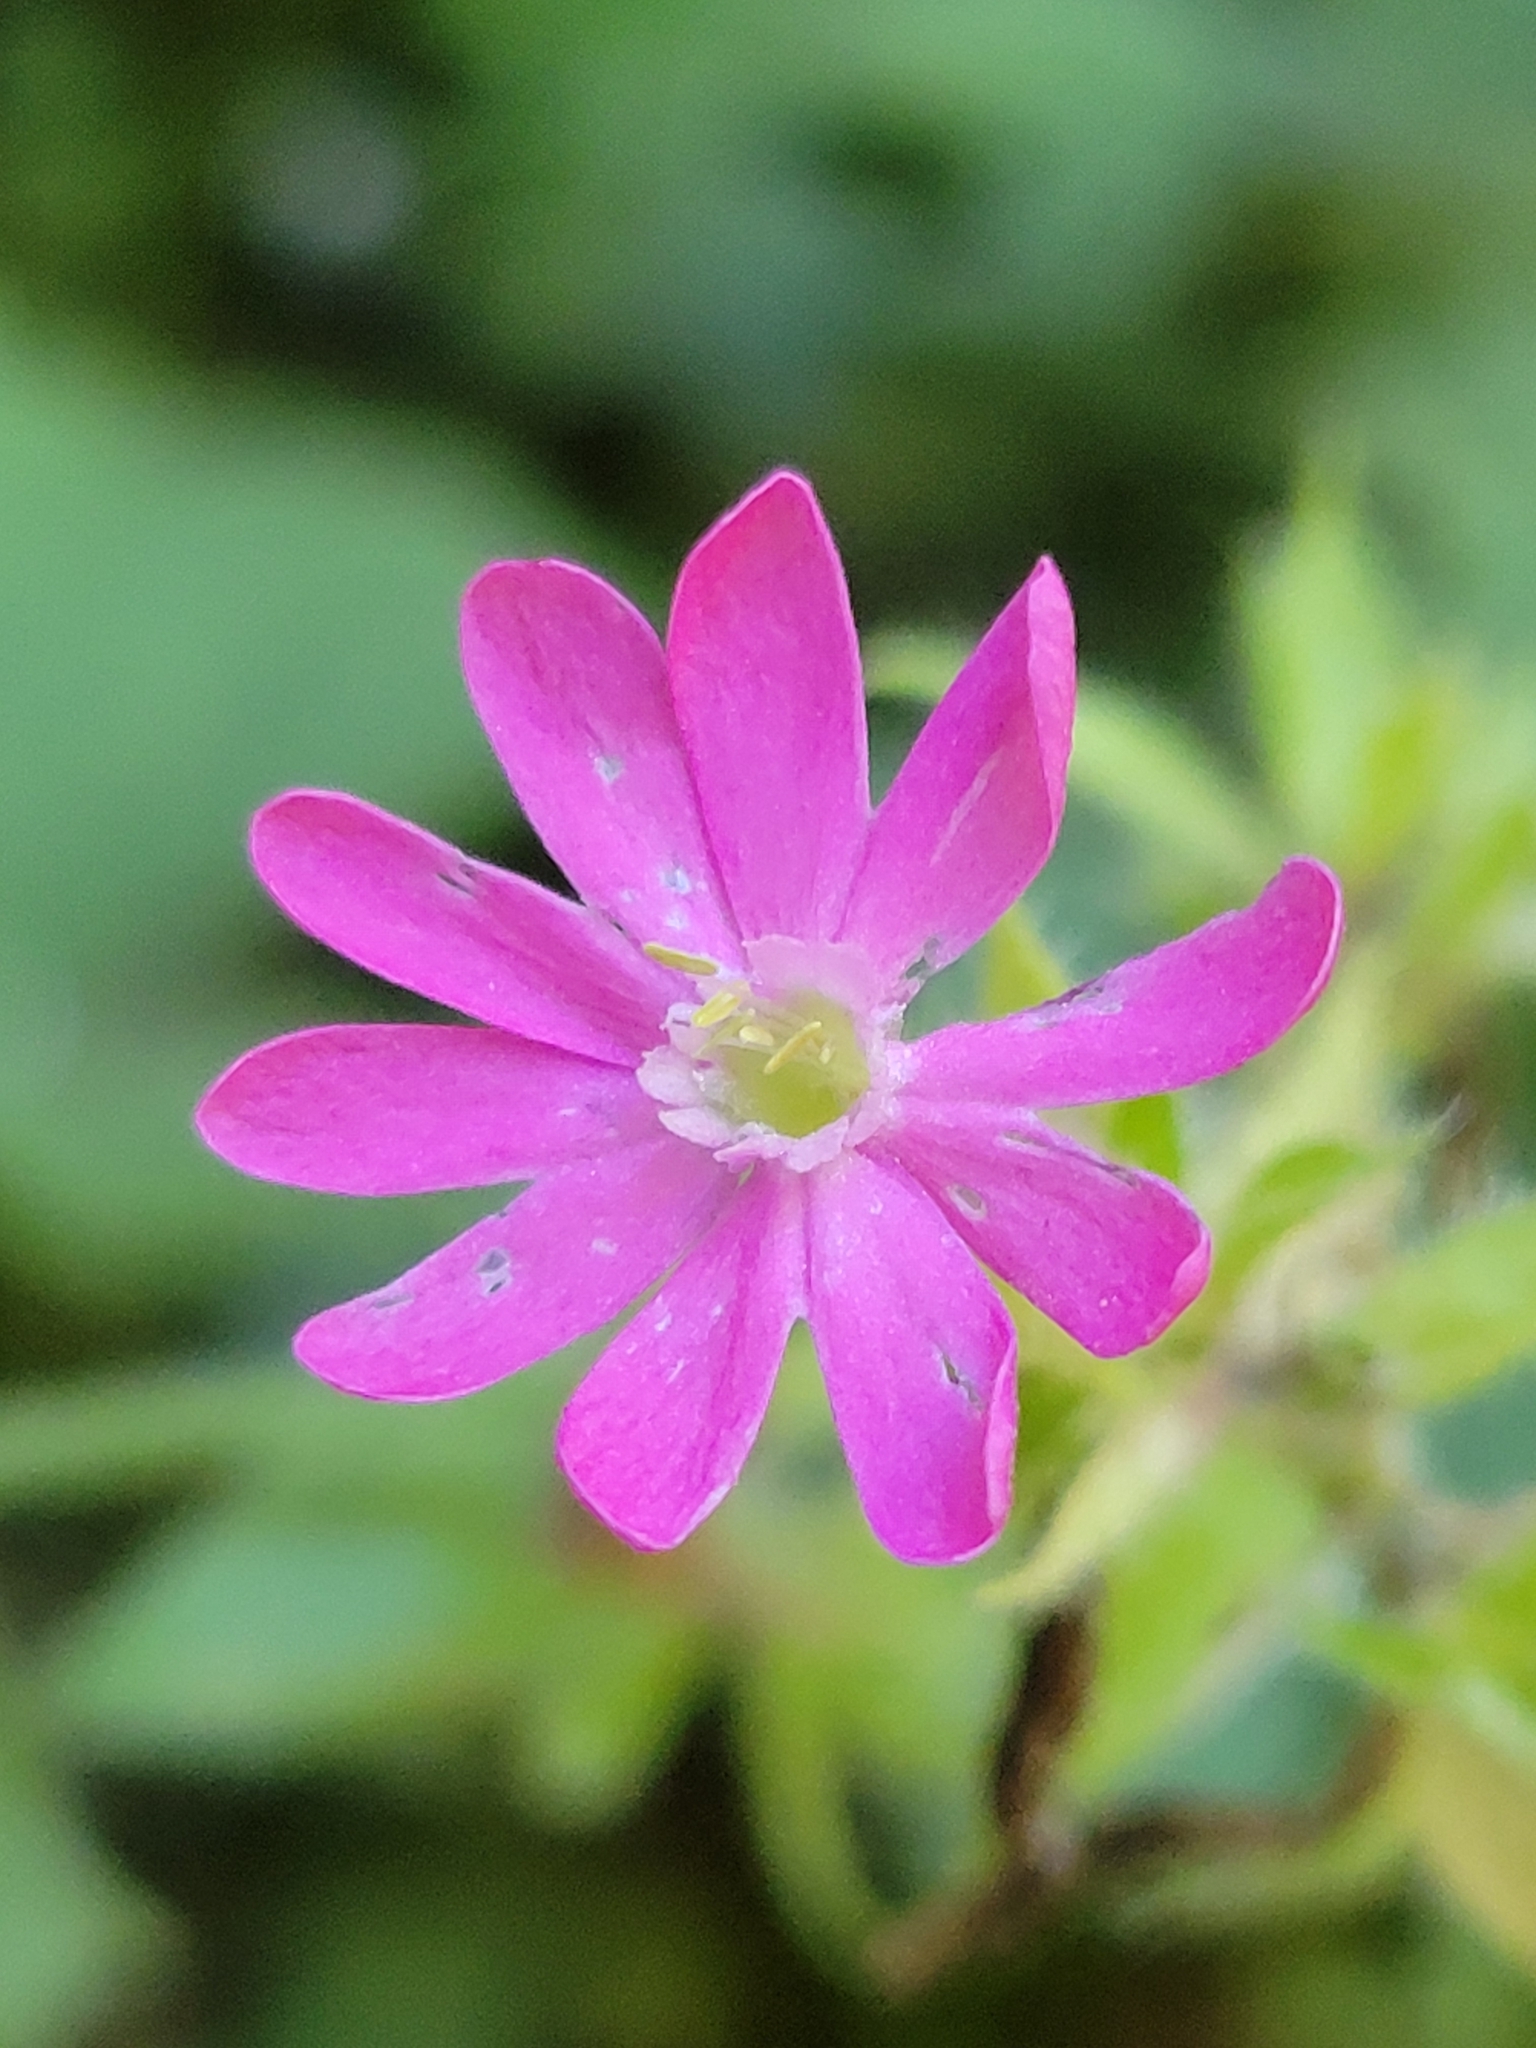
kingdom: Plantae
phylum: Tracheophyta
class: Magnoliopsida
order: Caryophyllales
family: Caryophyllaceae
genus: Silene
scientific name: Silene dioica
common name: Red campion
